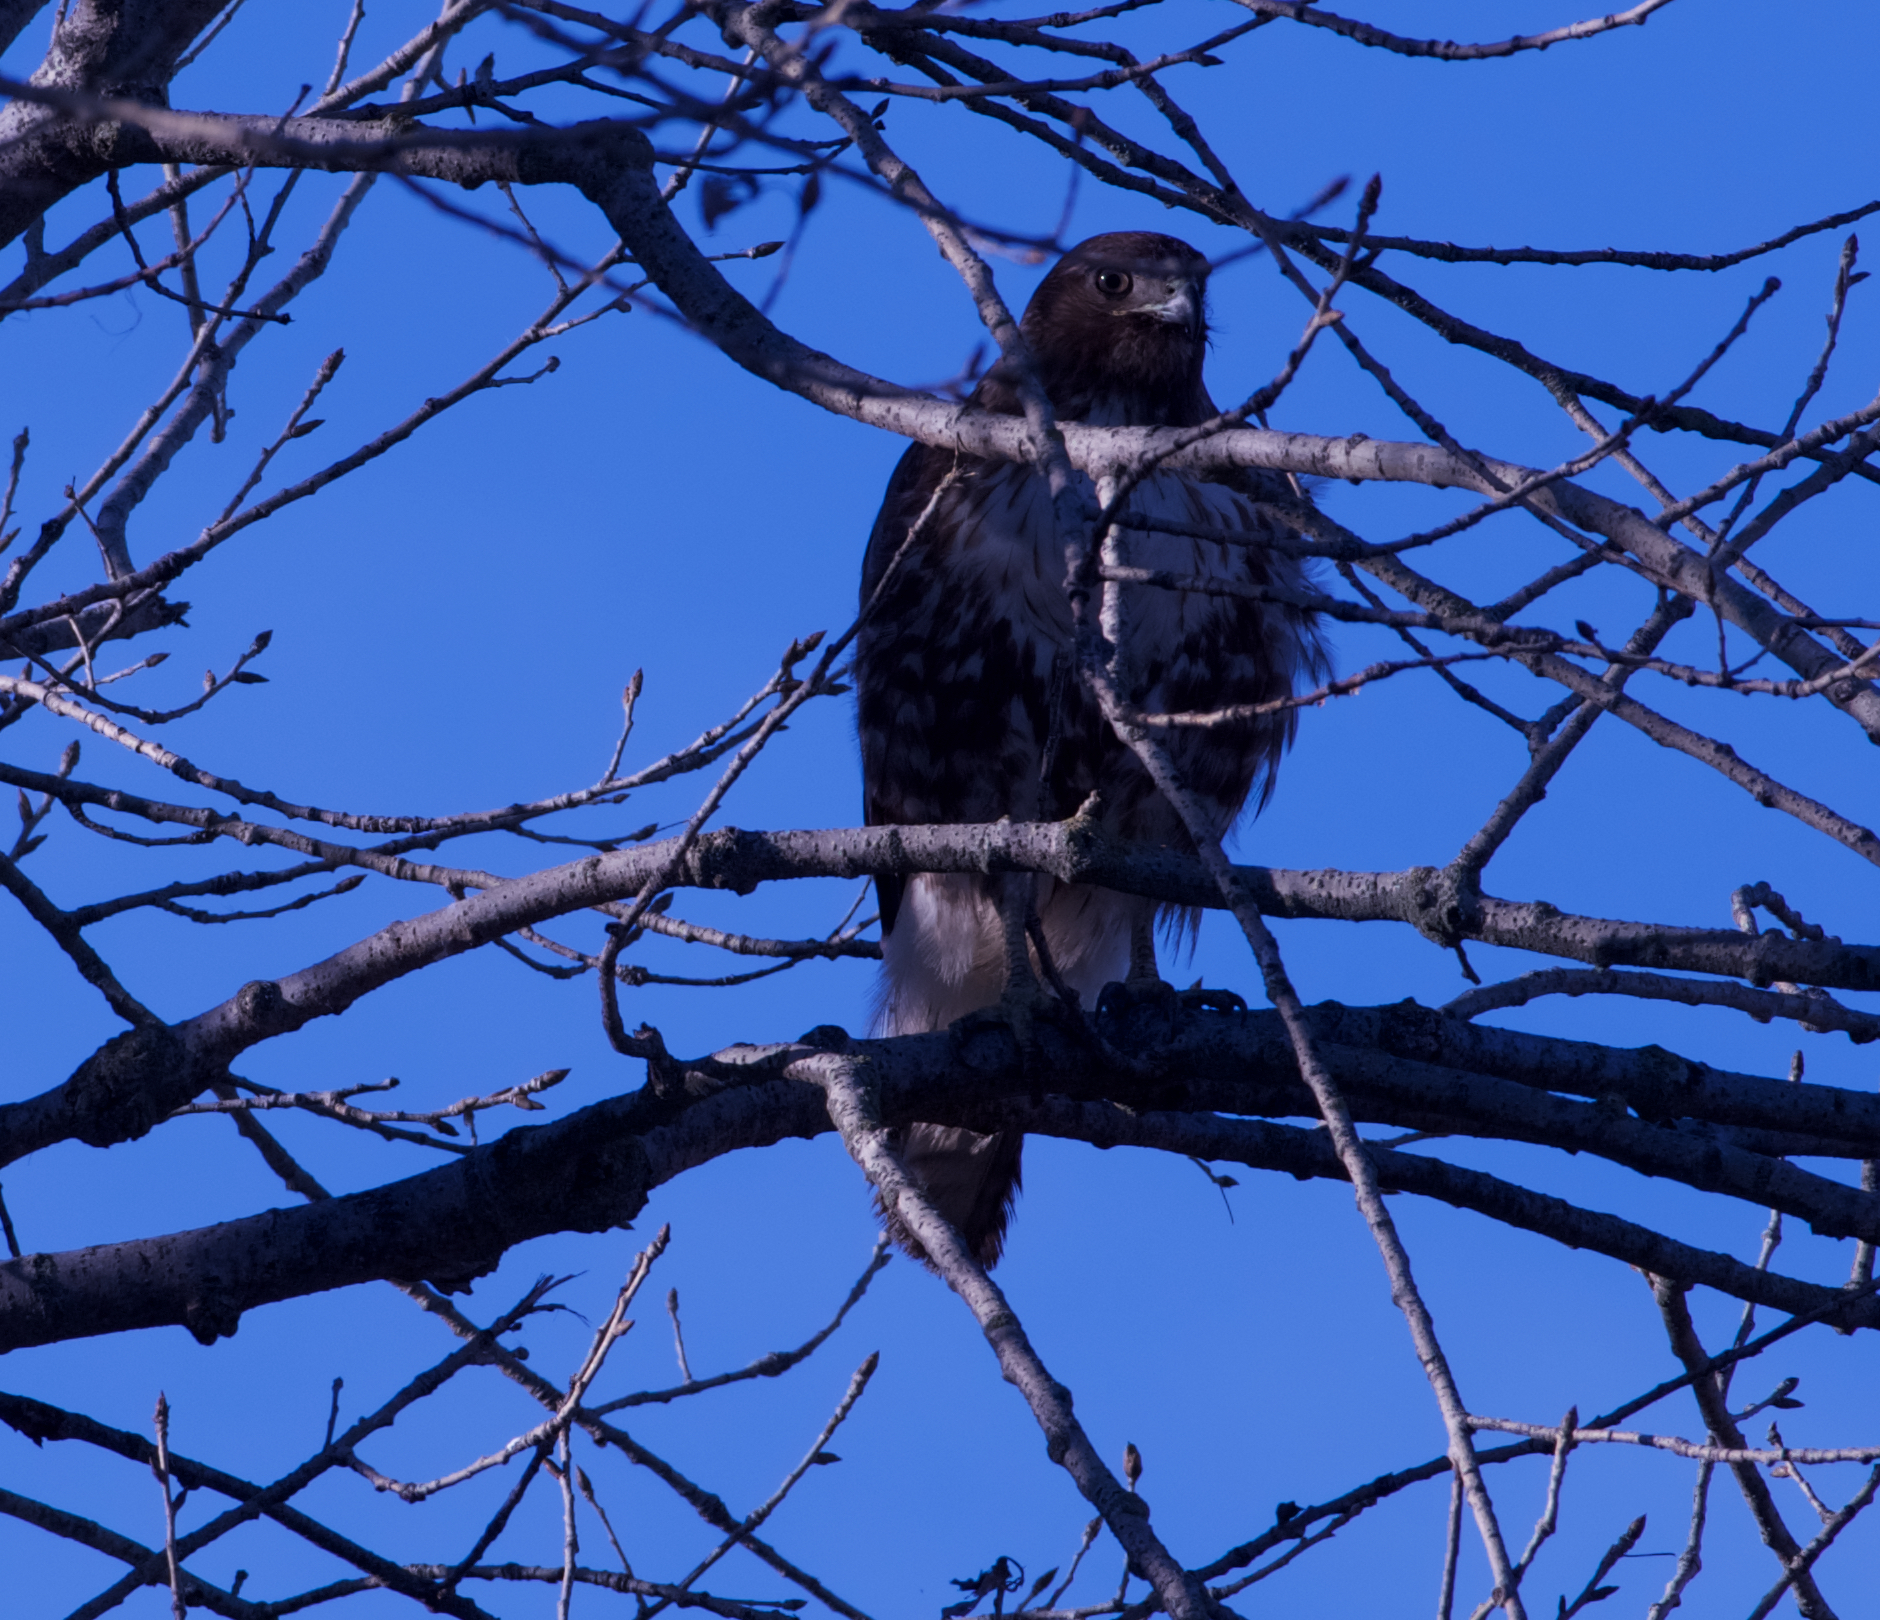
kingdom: Animalia
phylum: Chordata
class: Aves
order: Accipitriformes
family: Accipitridae
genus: Buteo
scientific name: Buteo jamaicensis
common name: Red-tailed hawk
